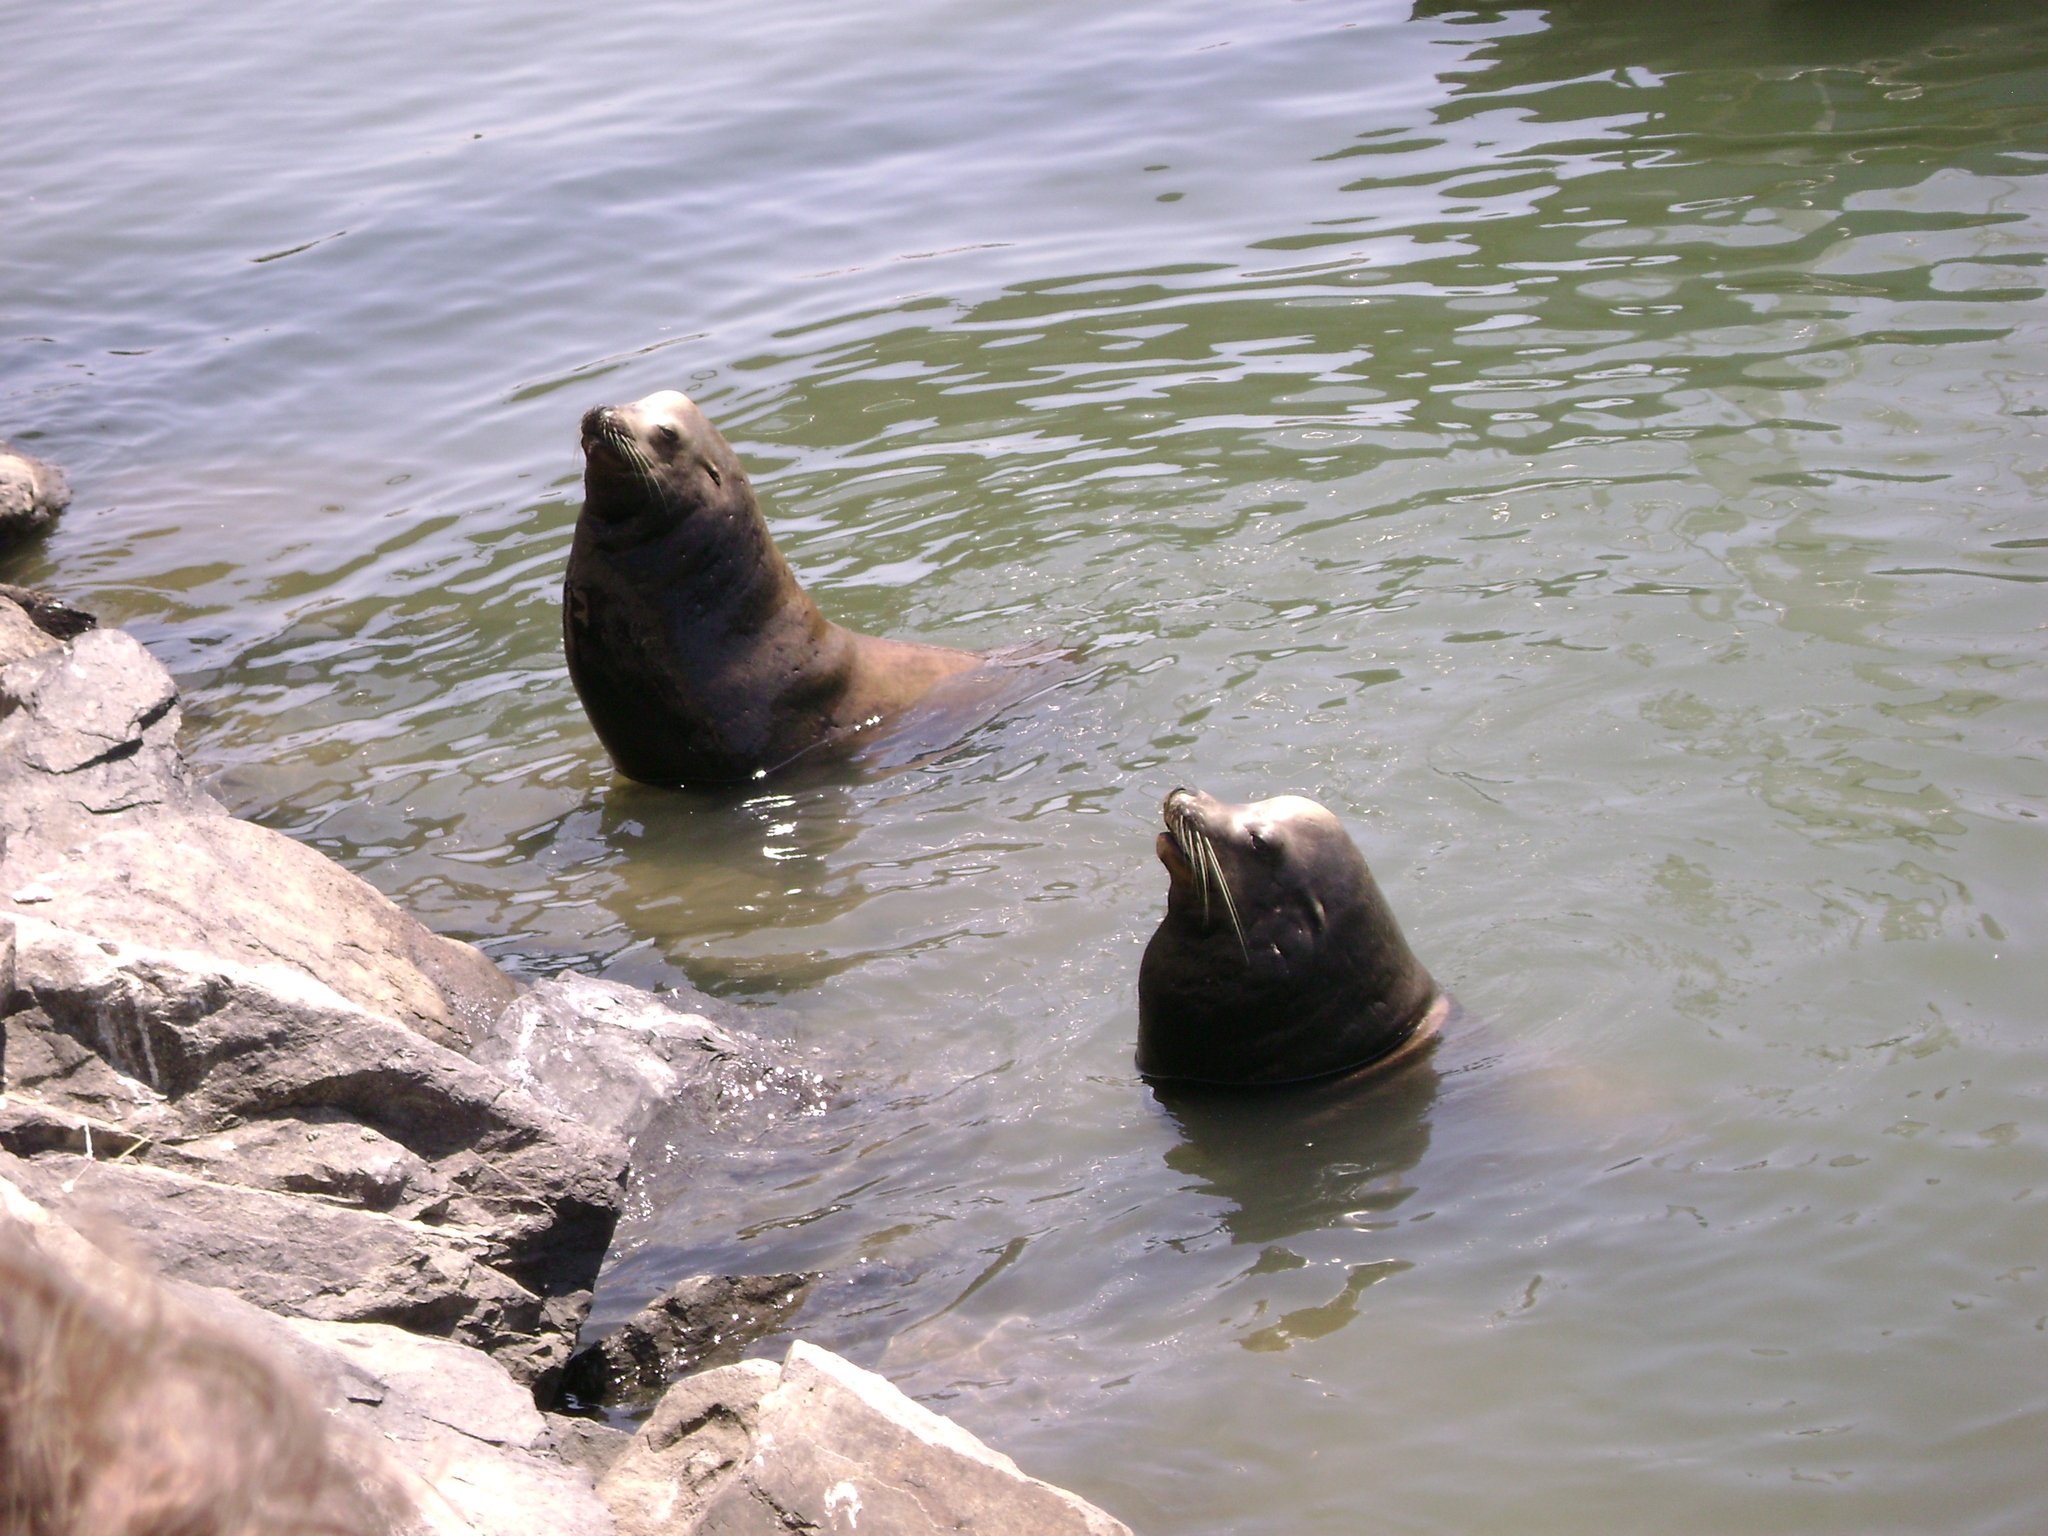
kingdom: Animalia
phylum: Chordata
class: Mammalia
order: Carnivora
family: Otariidae
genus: Zalophus
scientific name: Zalophus californianus
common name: California sea lion
